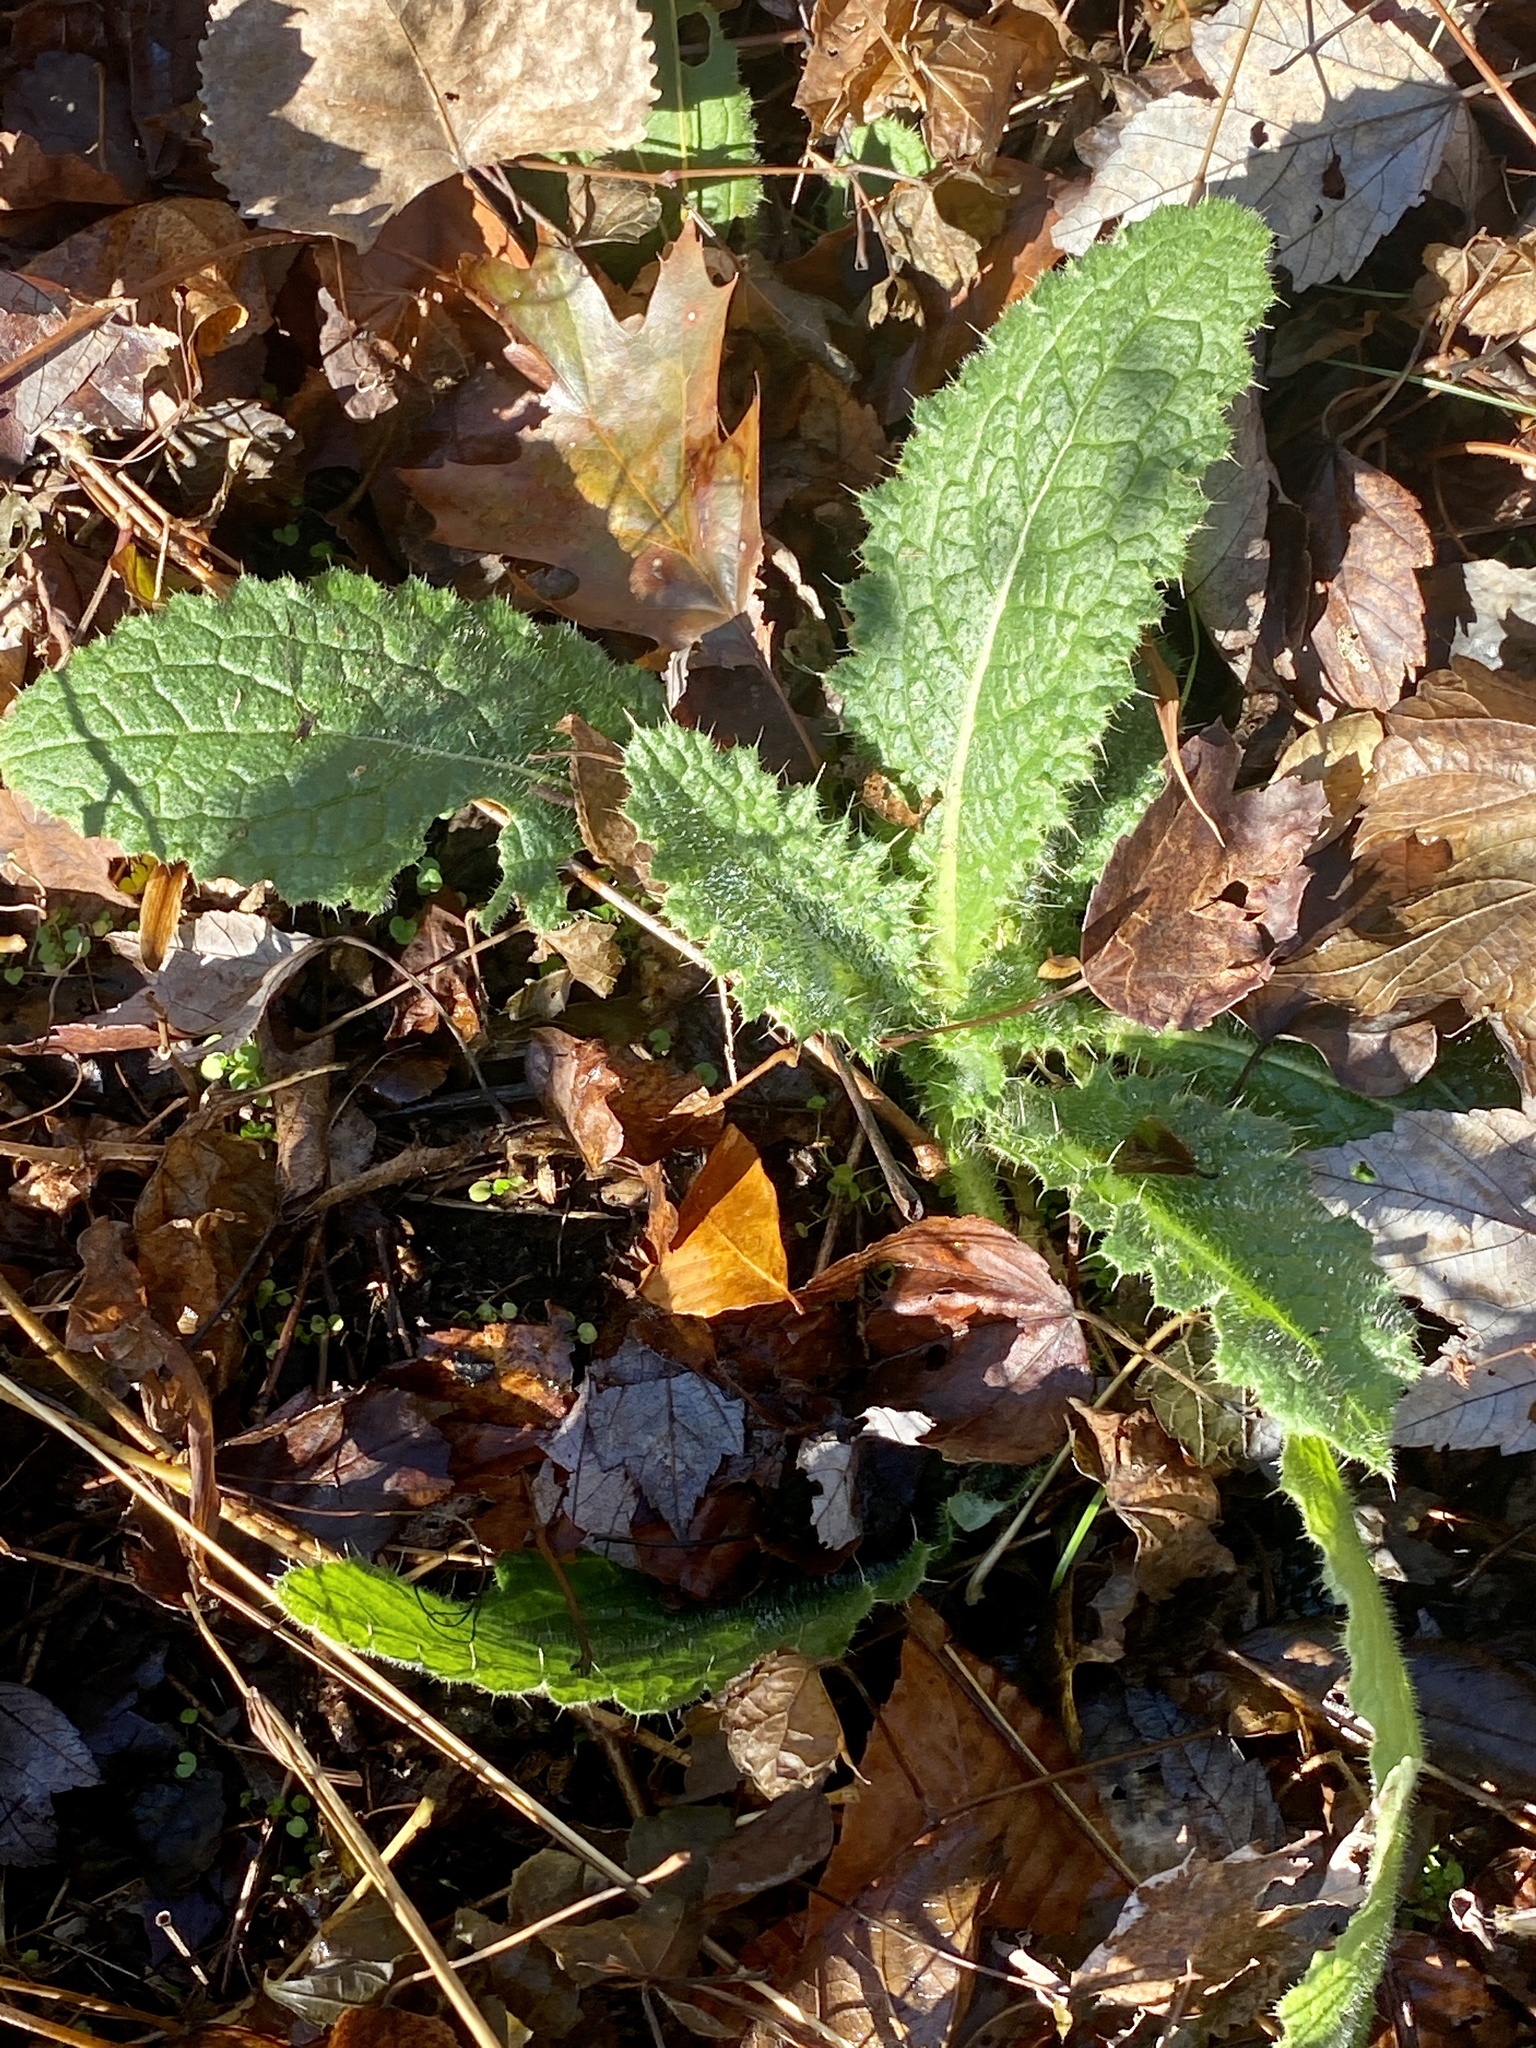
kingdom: Plantae
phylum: Tracheophyta
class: Magnoliopsida
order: Asterales
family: Asteraceae
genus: Cirsium
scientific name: Cirsium vulgare
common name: Bull thistle
